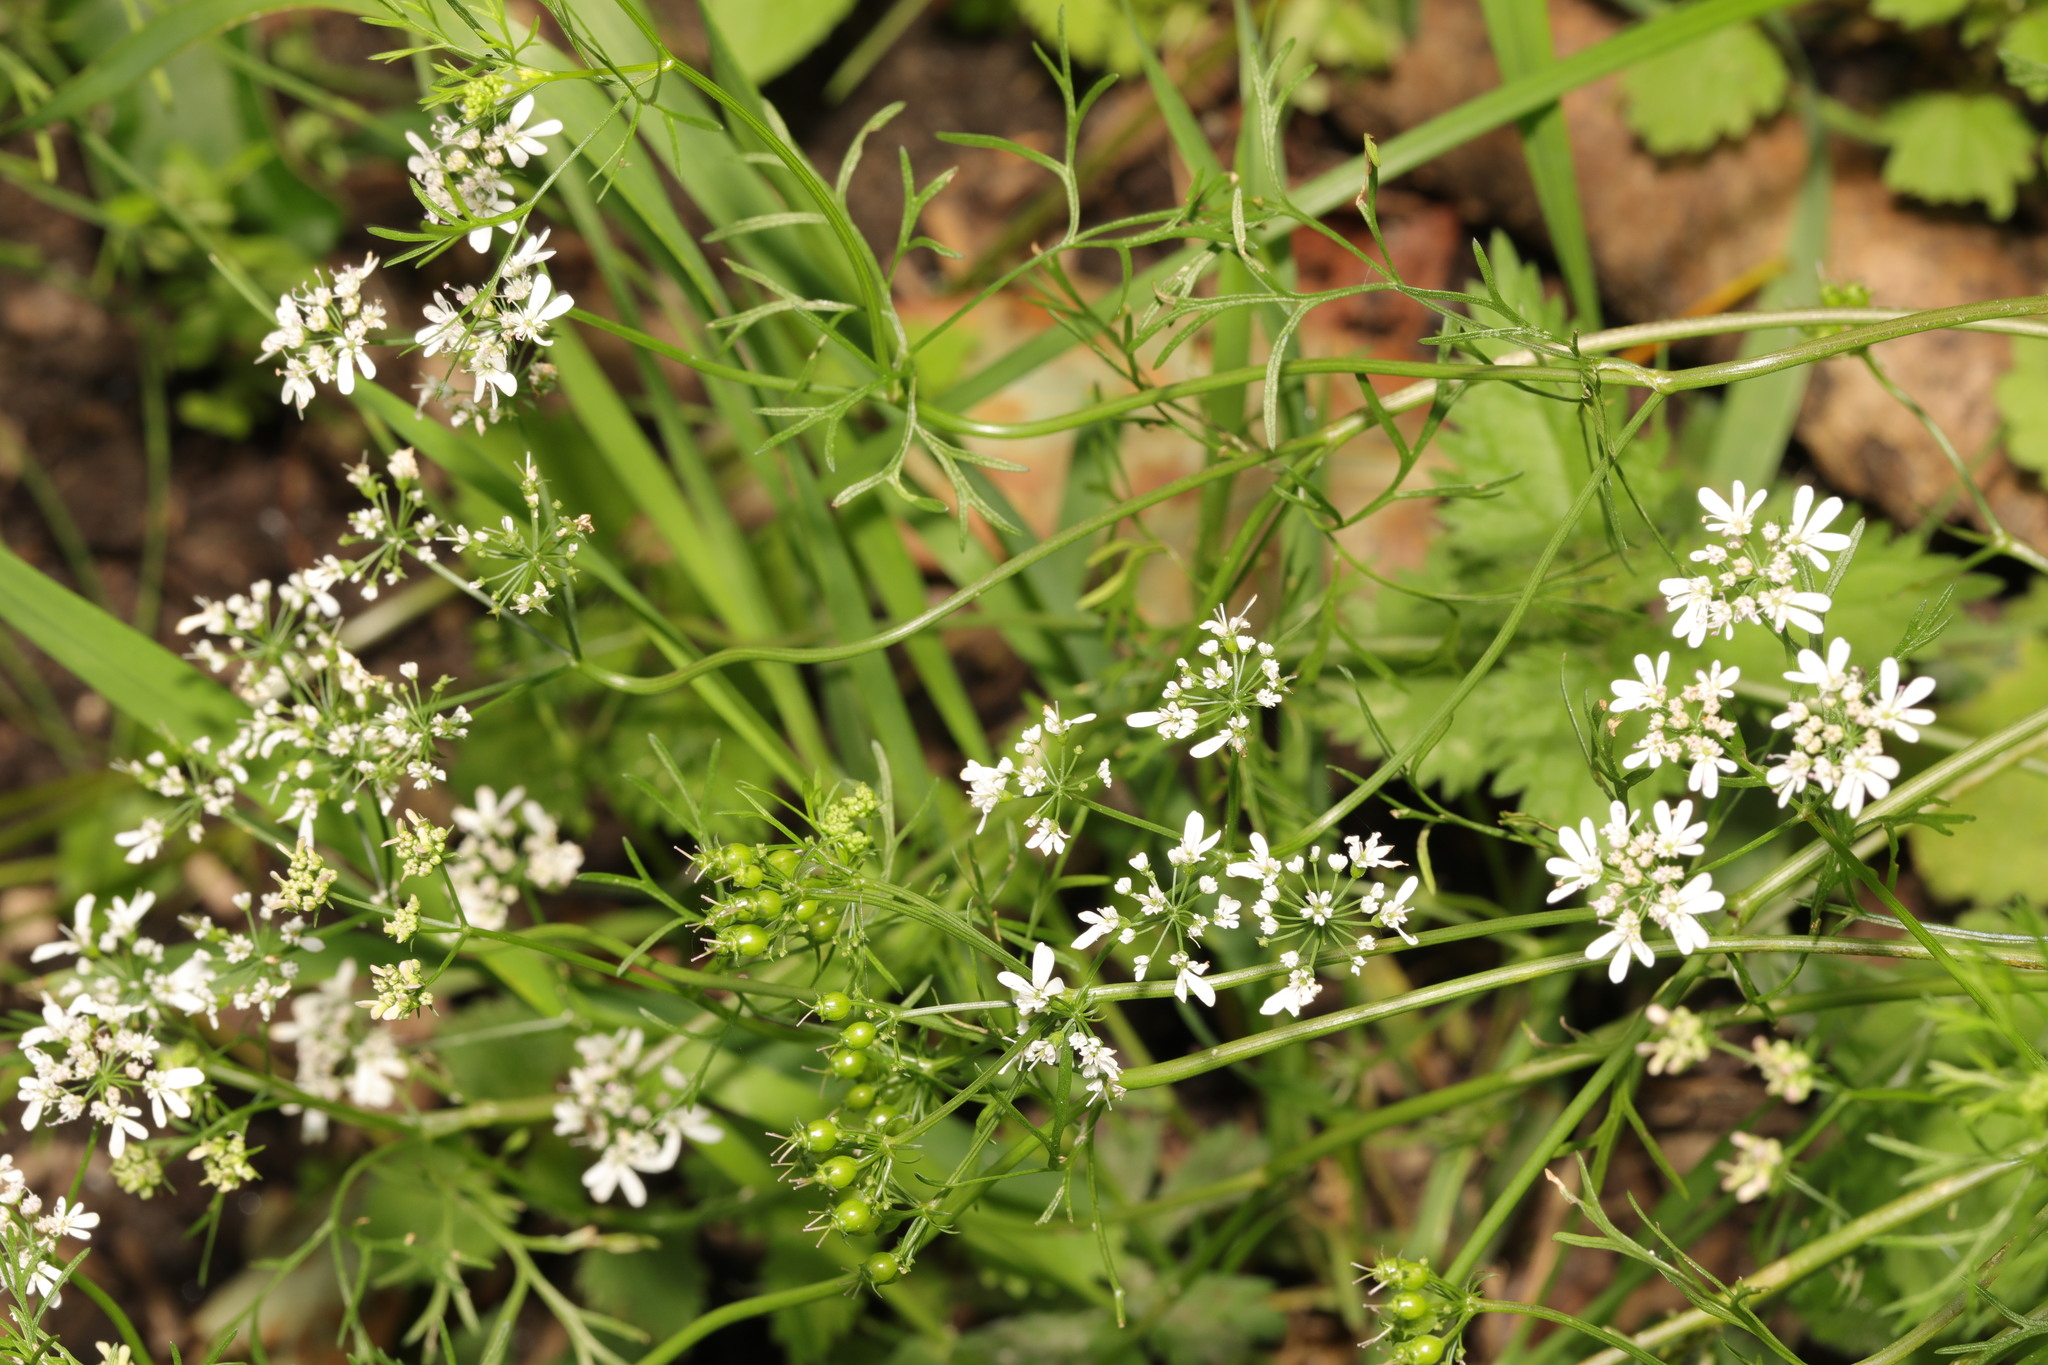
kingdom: Plantae
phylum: Tracheophyta
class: Magnoliopsida
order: Apiales
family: Apiaceae
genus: Coriandrum
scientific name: Coriandrum sativum
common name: Coriander
